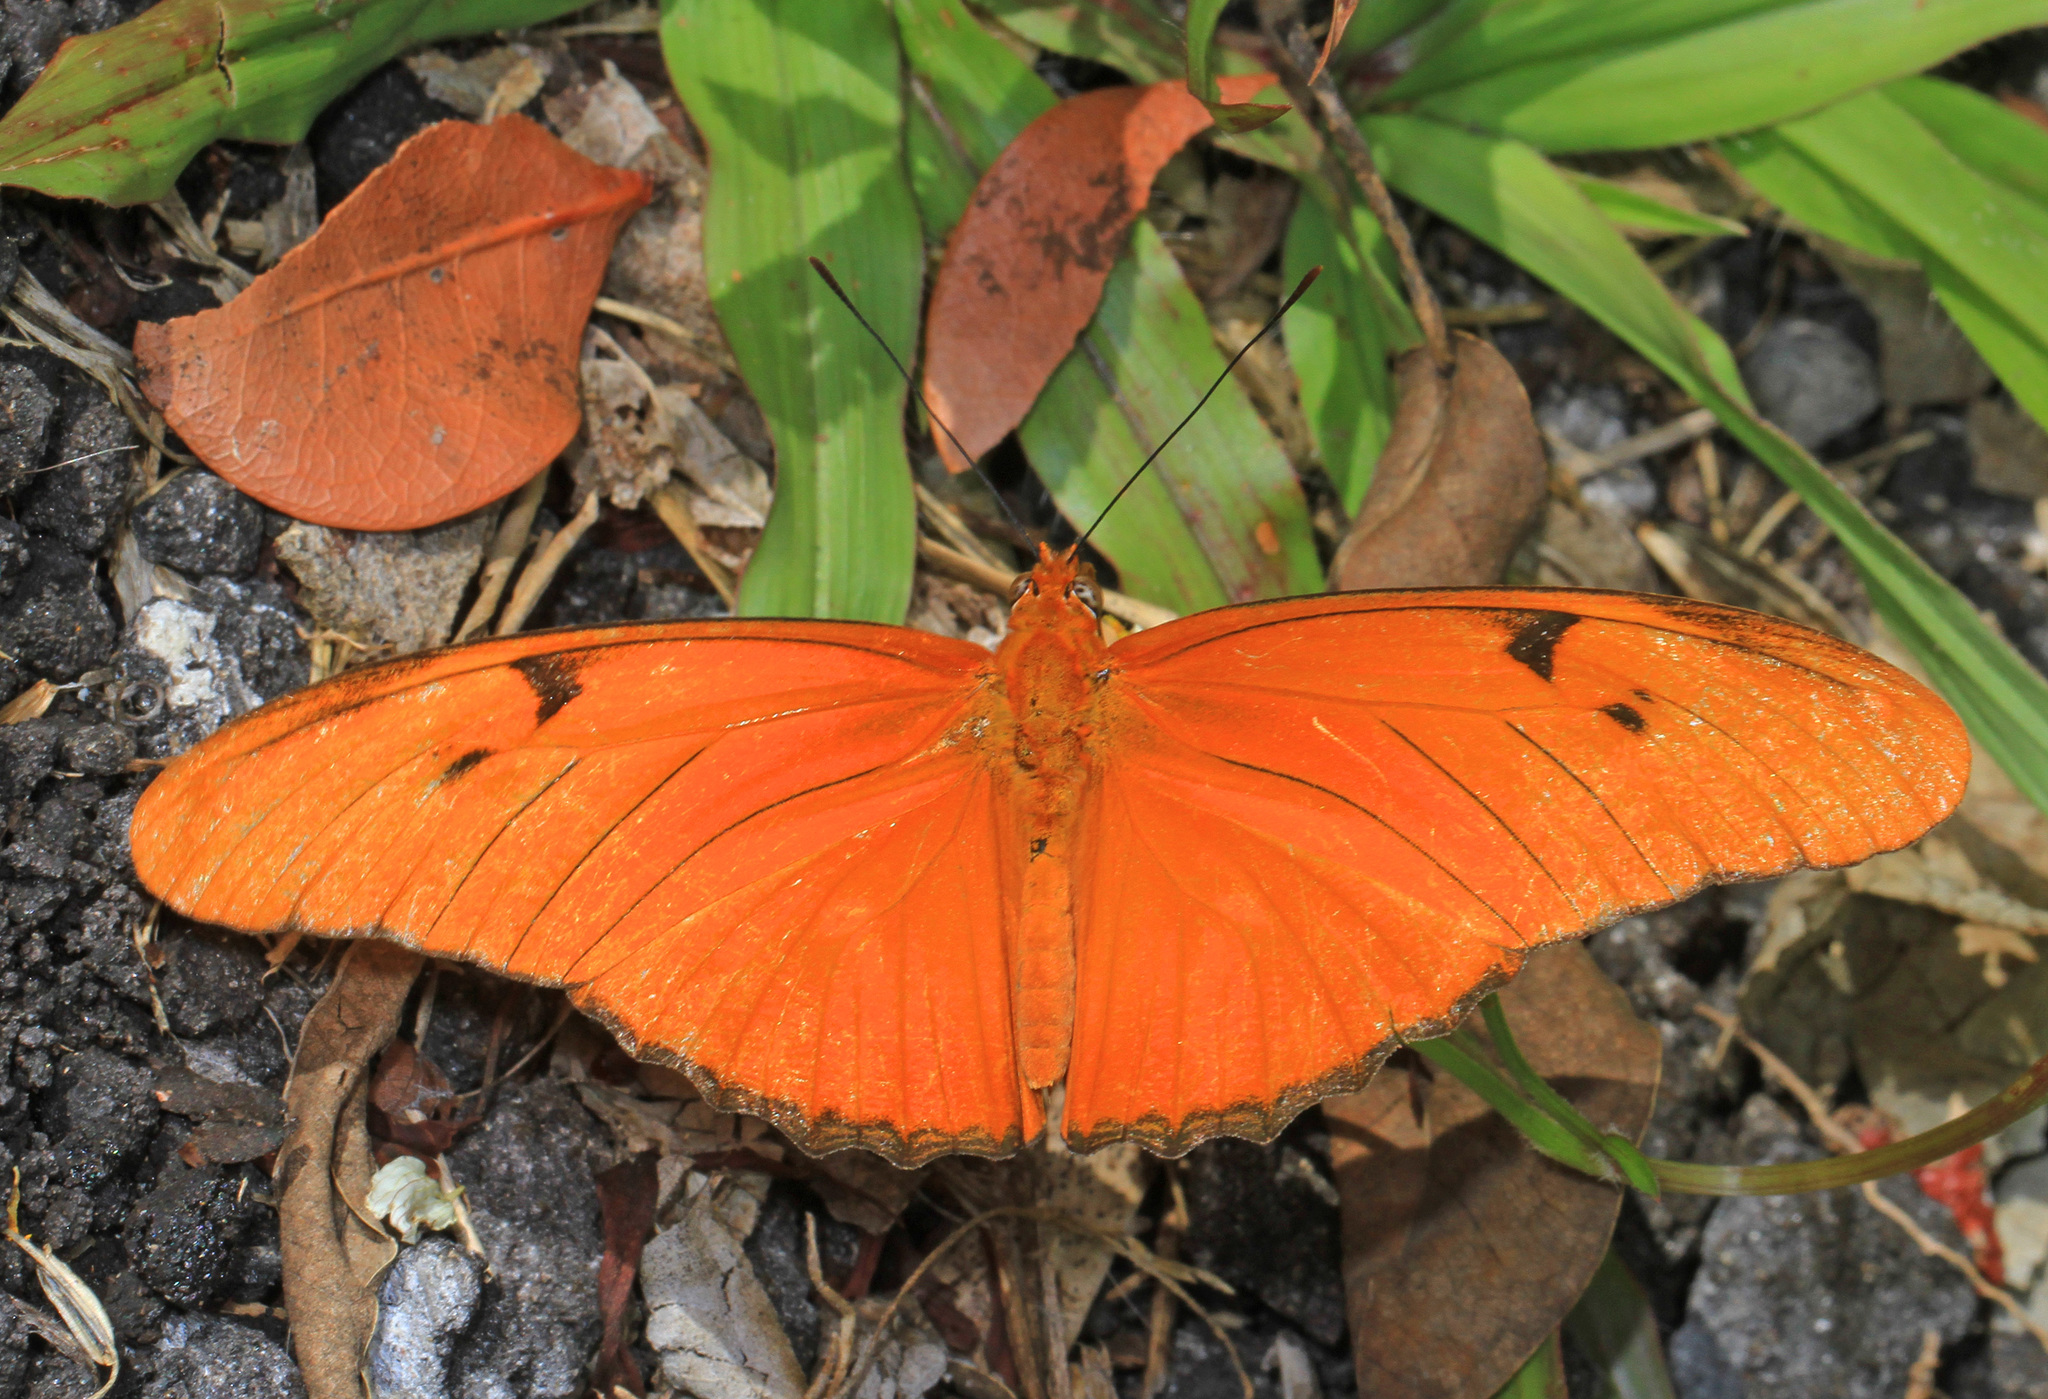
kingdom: Animalia
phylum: Arthropoda
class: Insecta
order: Lepidoptera
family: Nymphalidae
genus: Dryas
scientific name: Dryas iulia
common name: Flambeau
